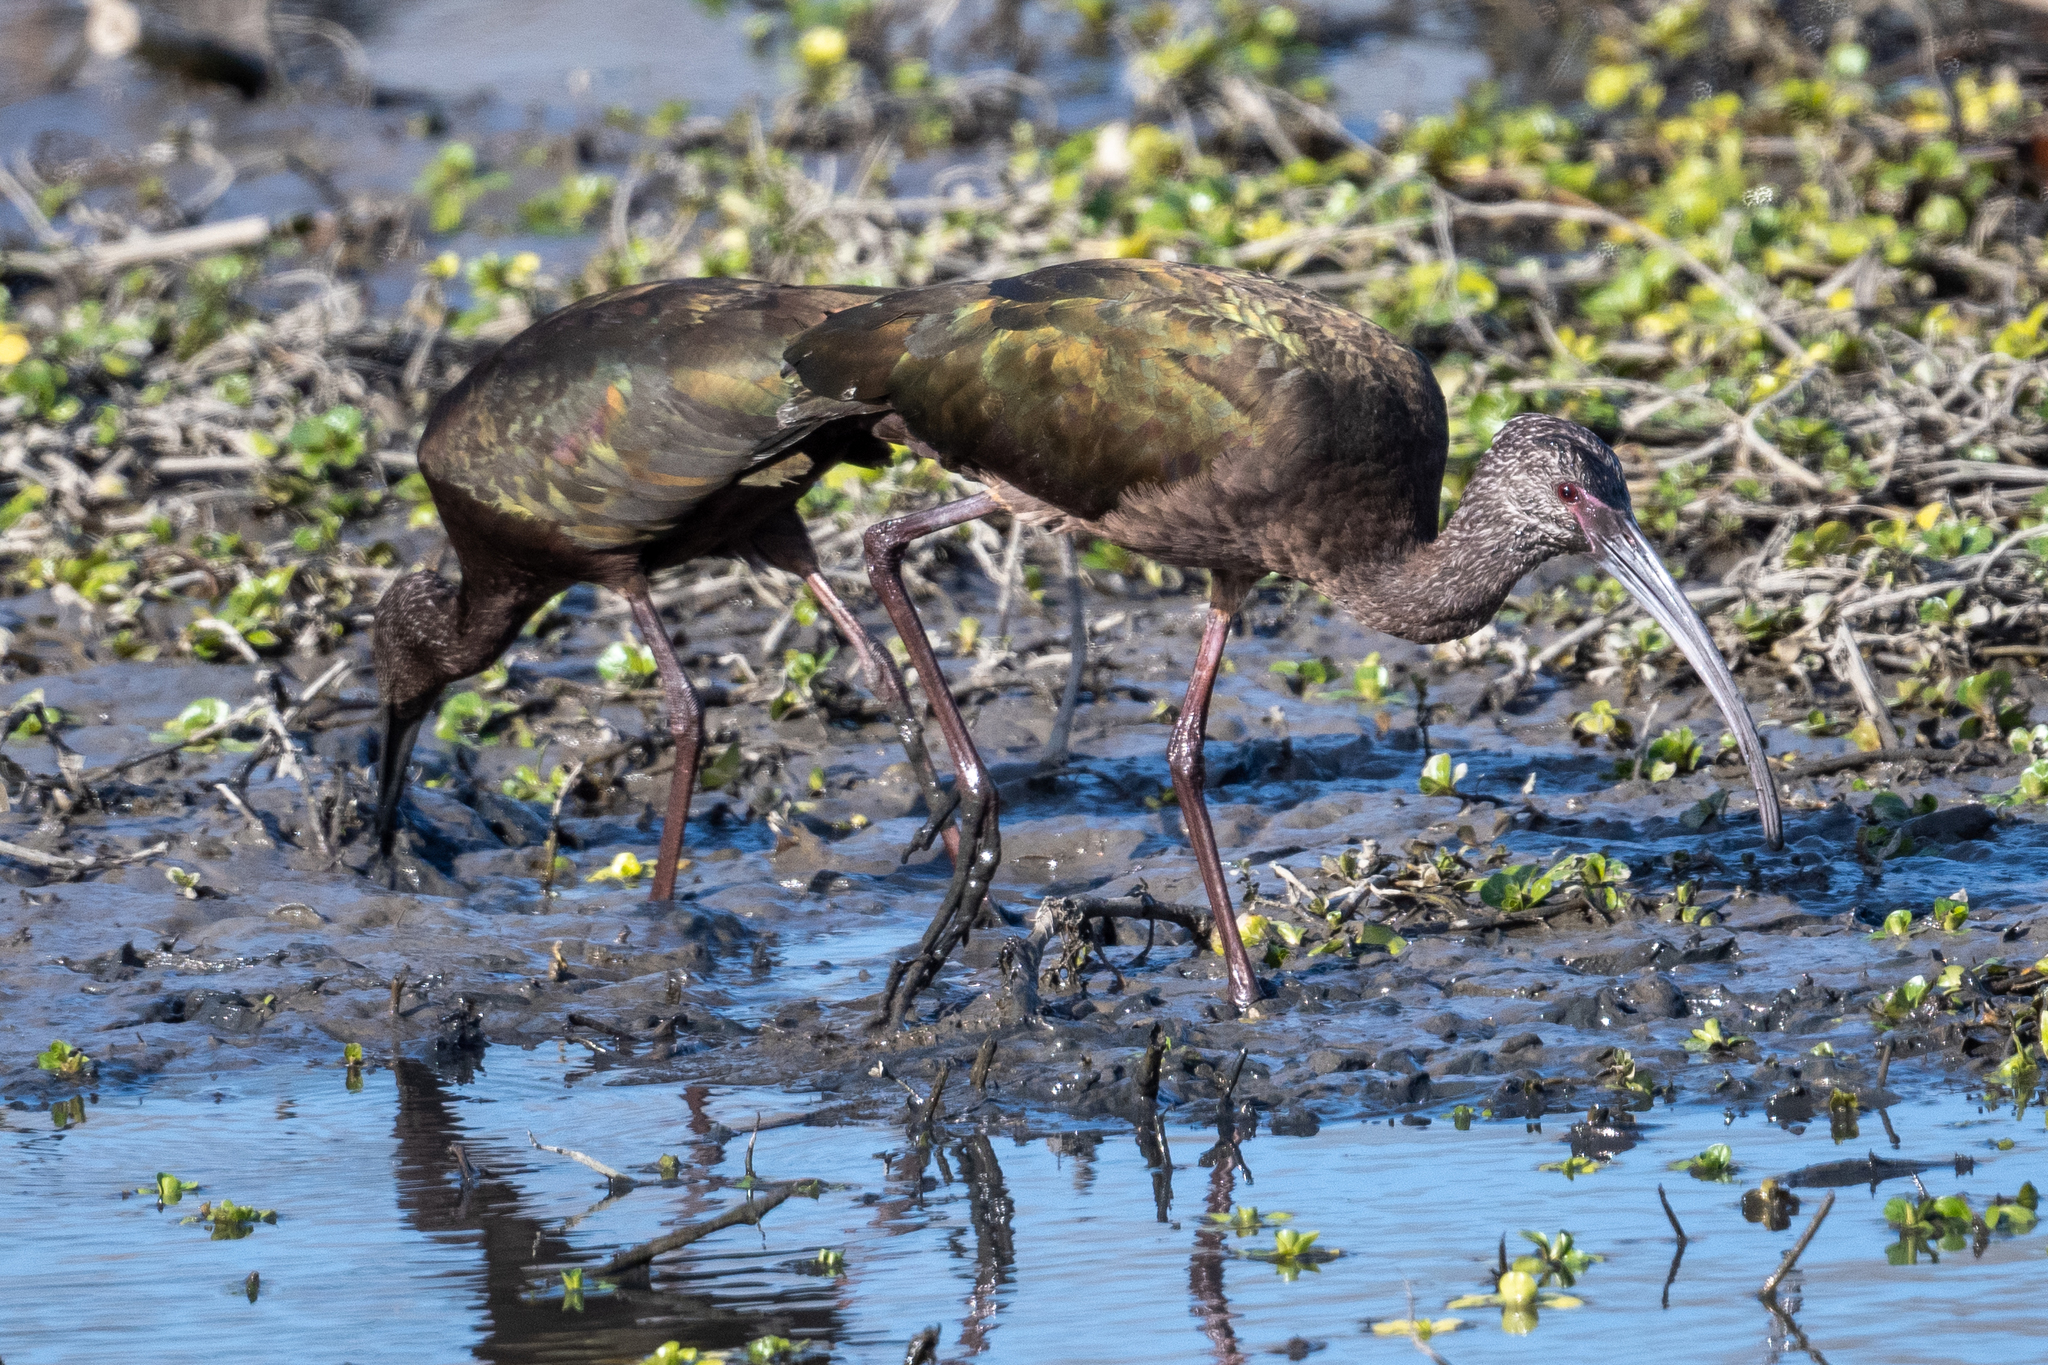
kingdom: Animalia
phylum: Chordata
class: Aves
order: Pelecaniformes
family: Threskiornithidae
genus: Plegadis
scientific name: Plegadis chihi
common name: White-faced ibis
